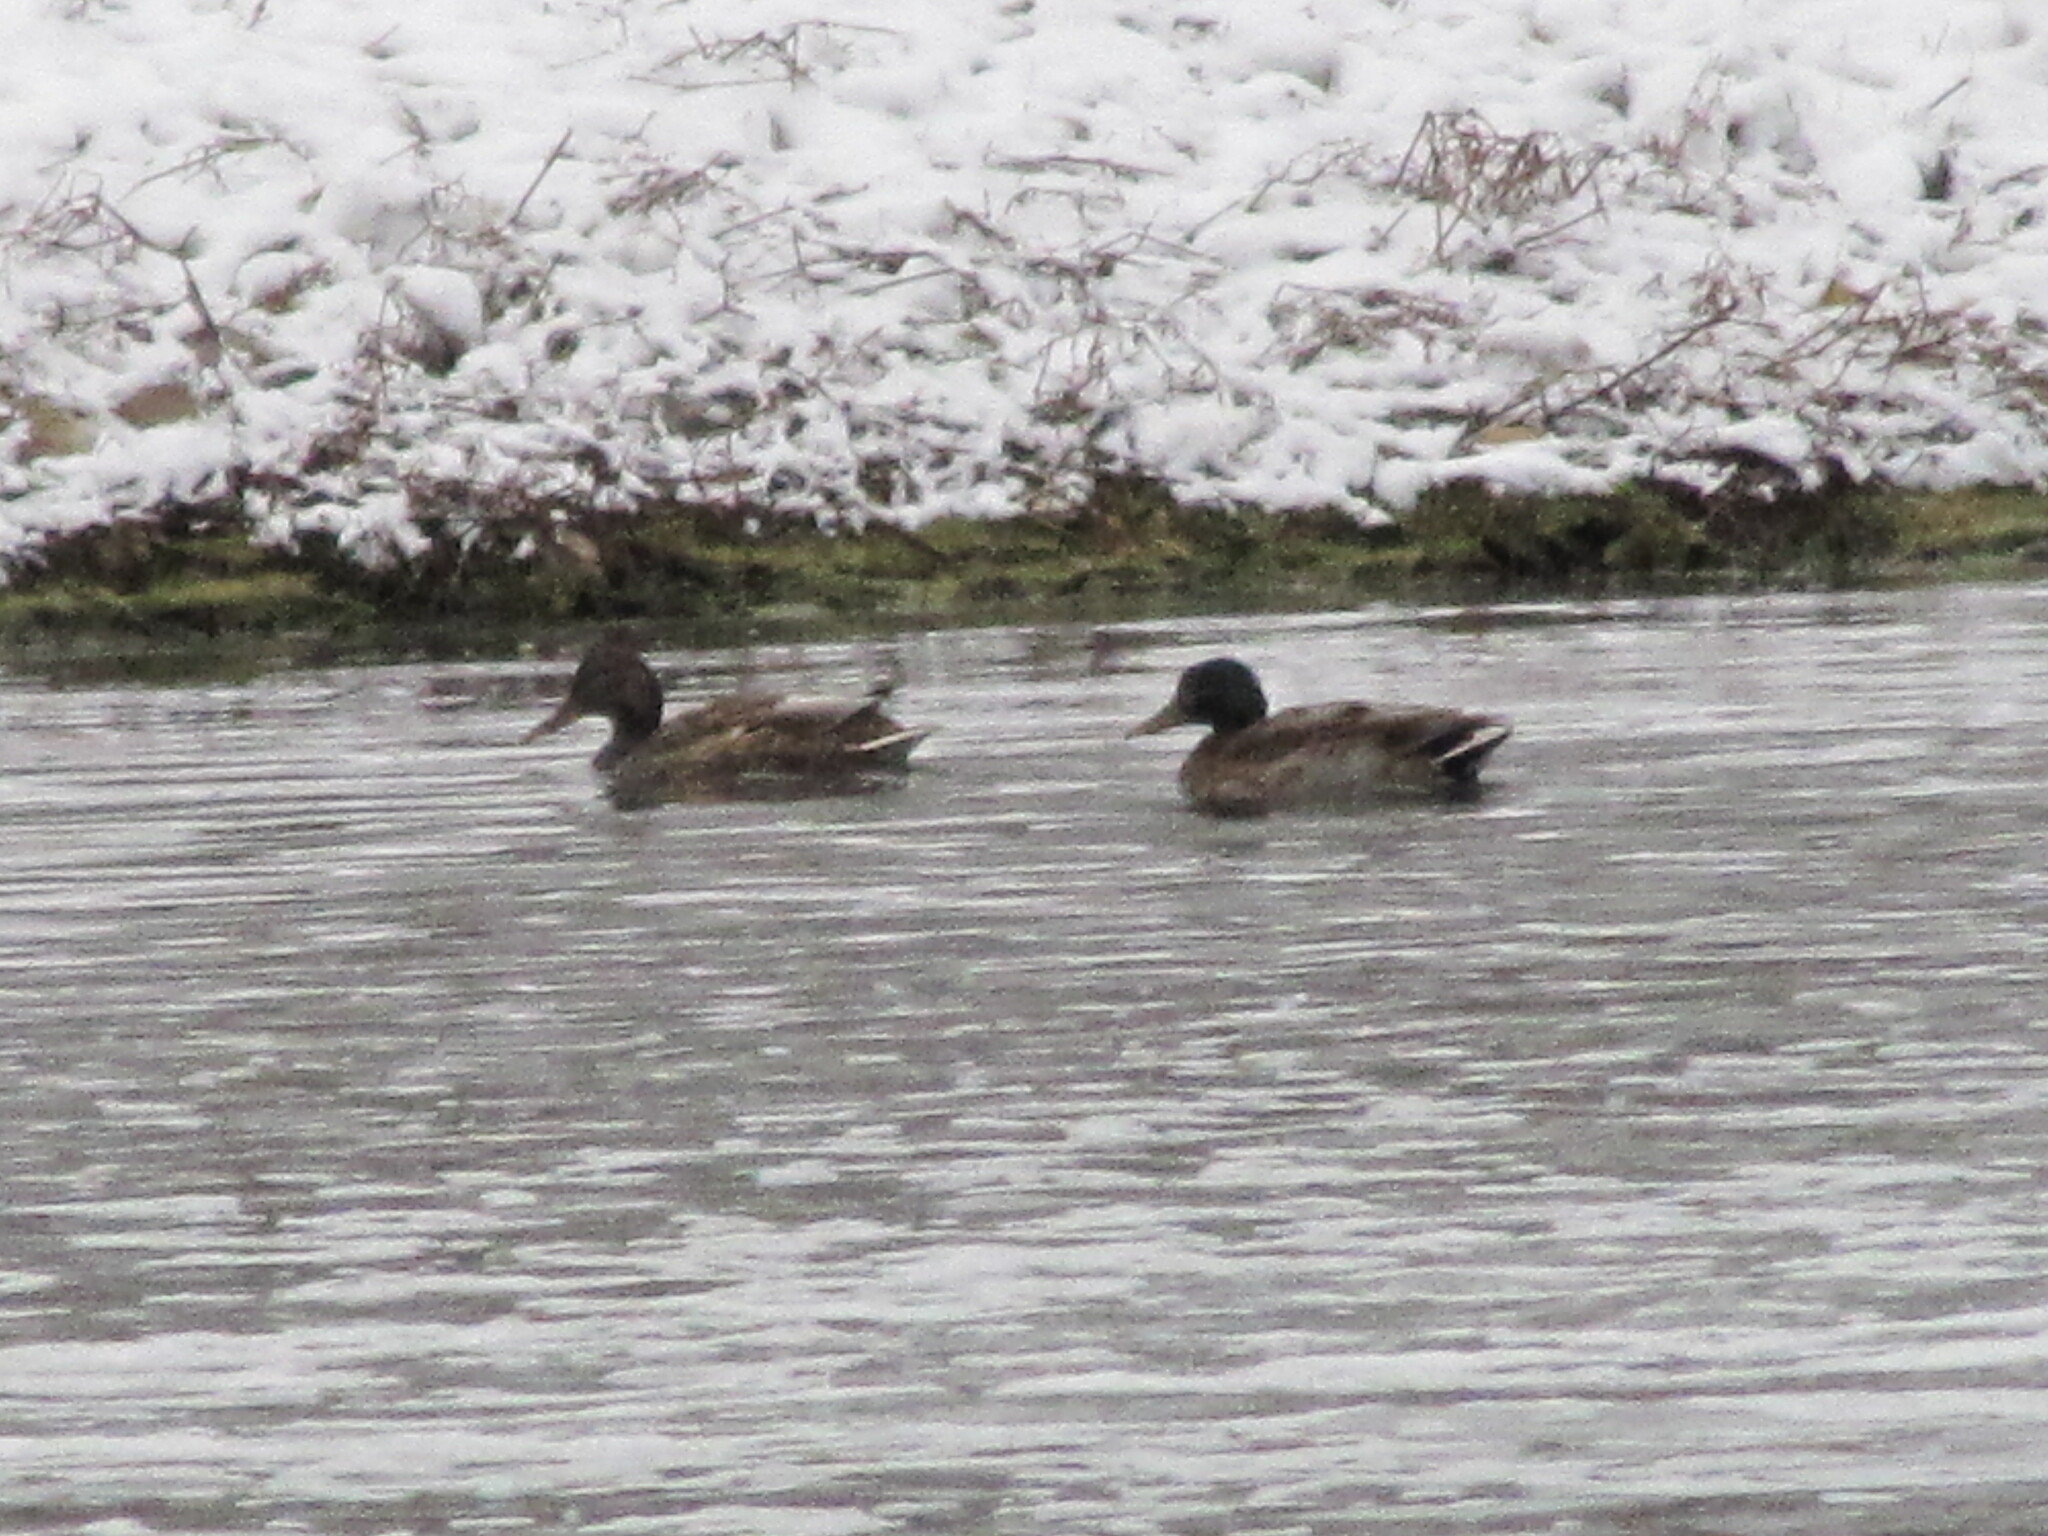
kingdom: Animalia
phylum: Chordata
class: Aves
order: Anseriformes
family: Anatidae
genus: Anas
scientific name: Anas platyrhynchos
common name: Mallard
